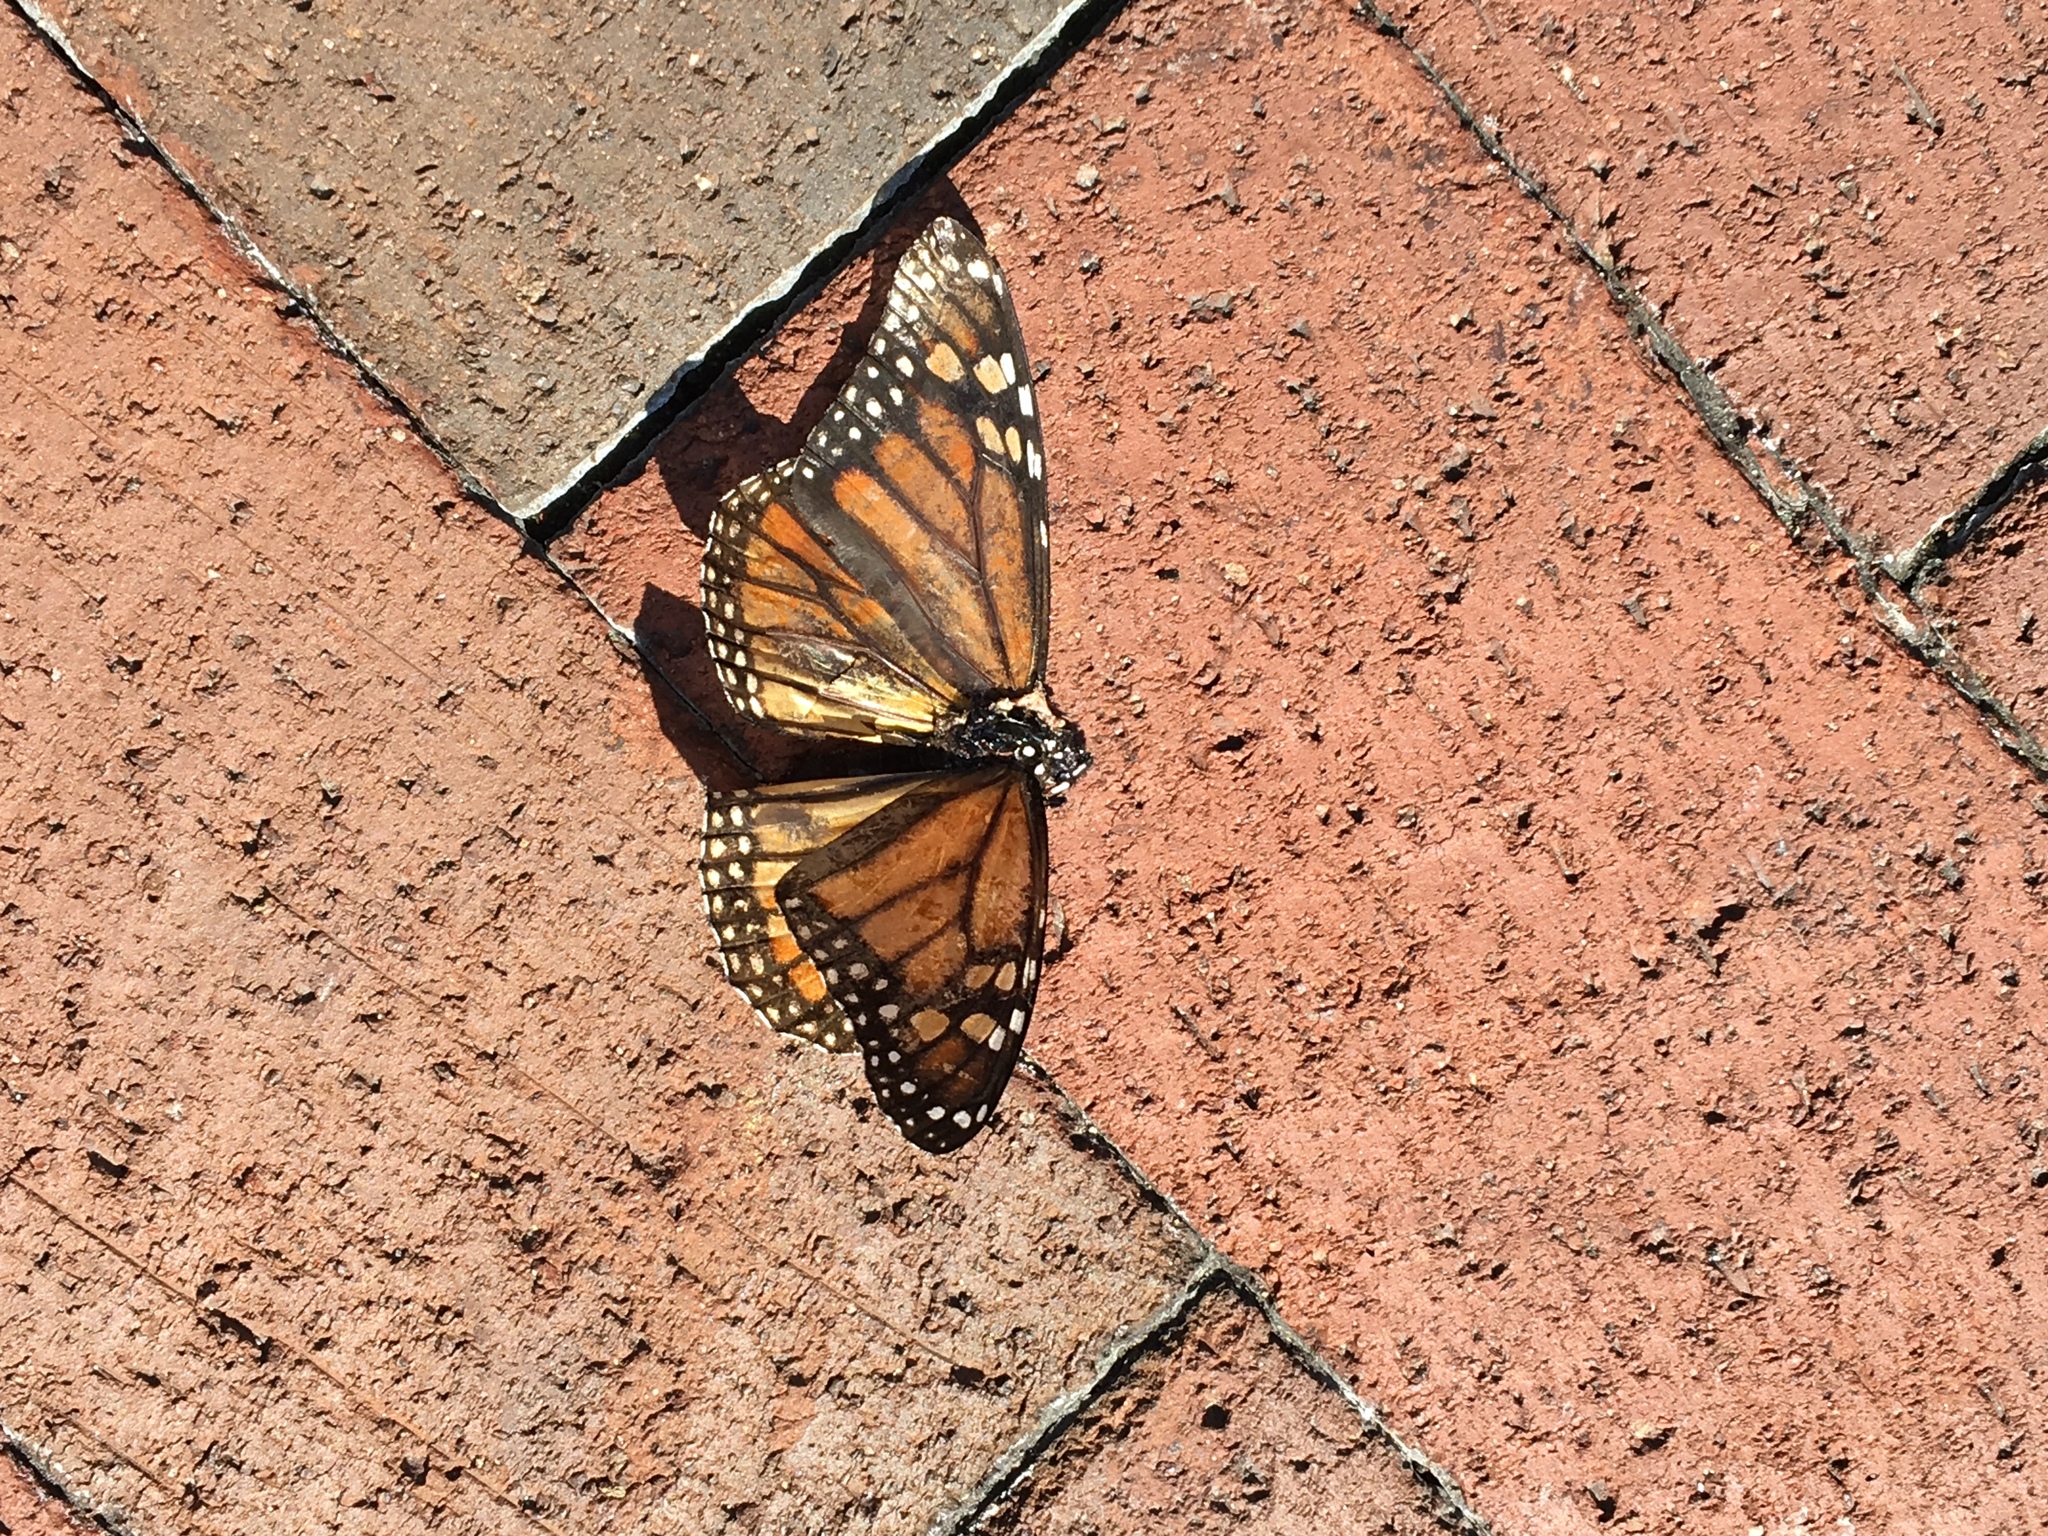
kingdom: Animalia
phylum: Arthropoda
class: Insecta
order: Lepidoptera
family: Nymphalidae
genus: Danaus
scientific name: Danaus plexippus
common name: Monarch
